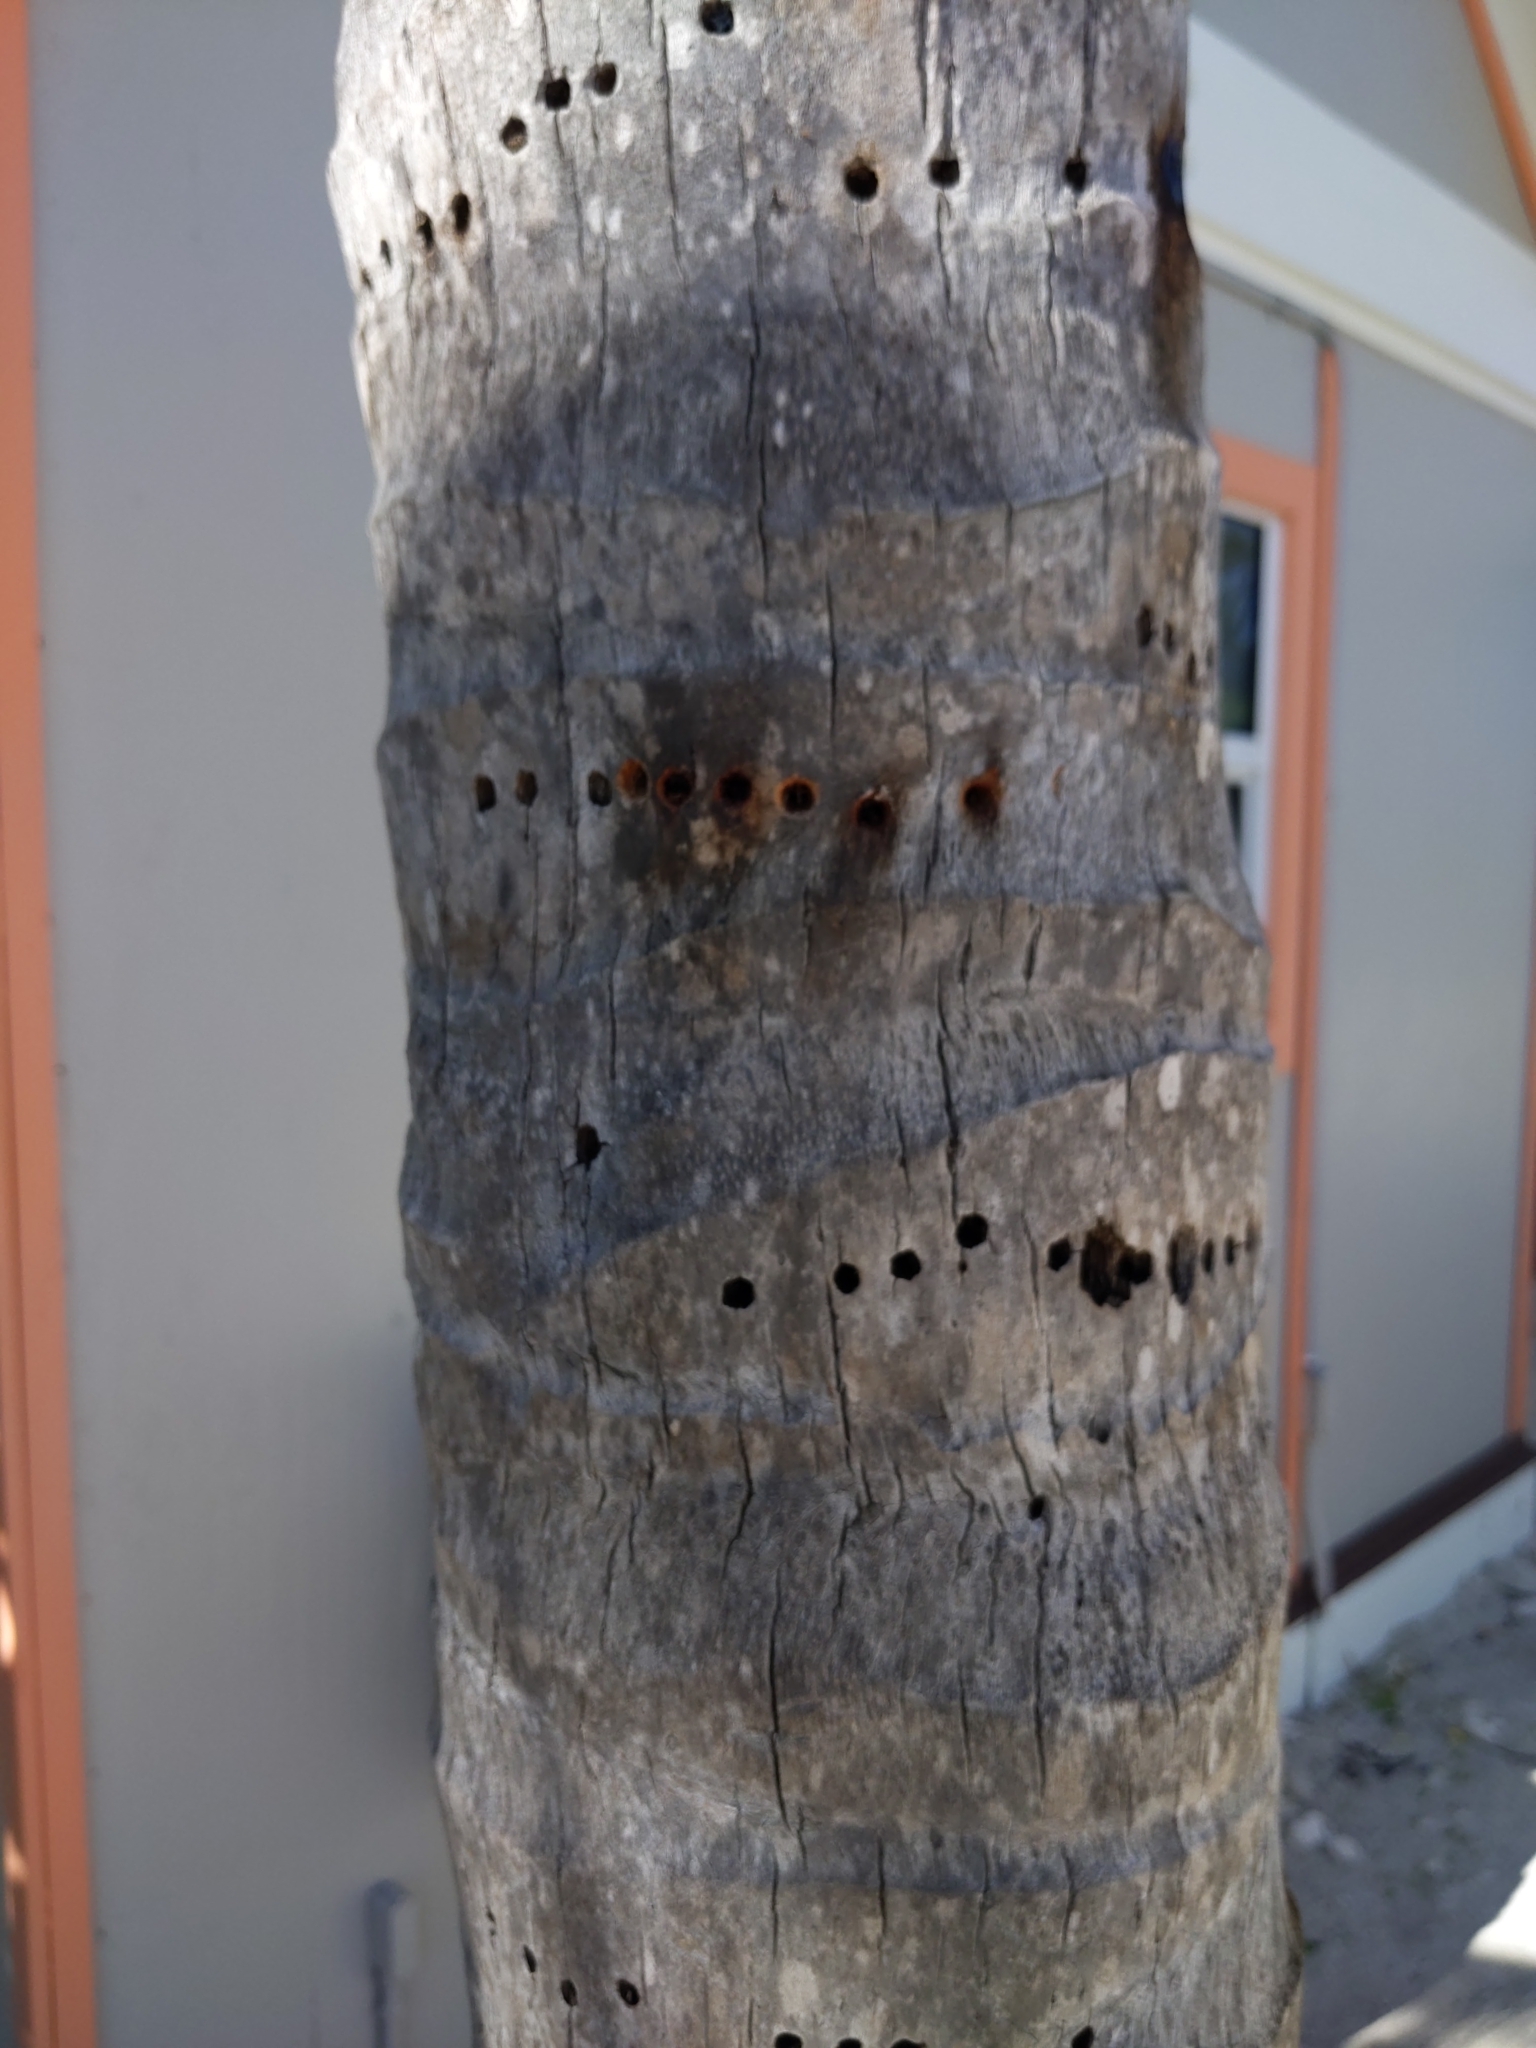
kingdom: Animalia
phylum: Chordata
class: Aves
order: Piciformes
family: Picidae
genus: Sphyrapicus
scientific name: Sphyrapicus varius
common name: Yellow-bellied sapsucker
